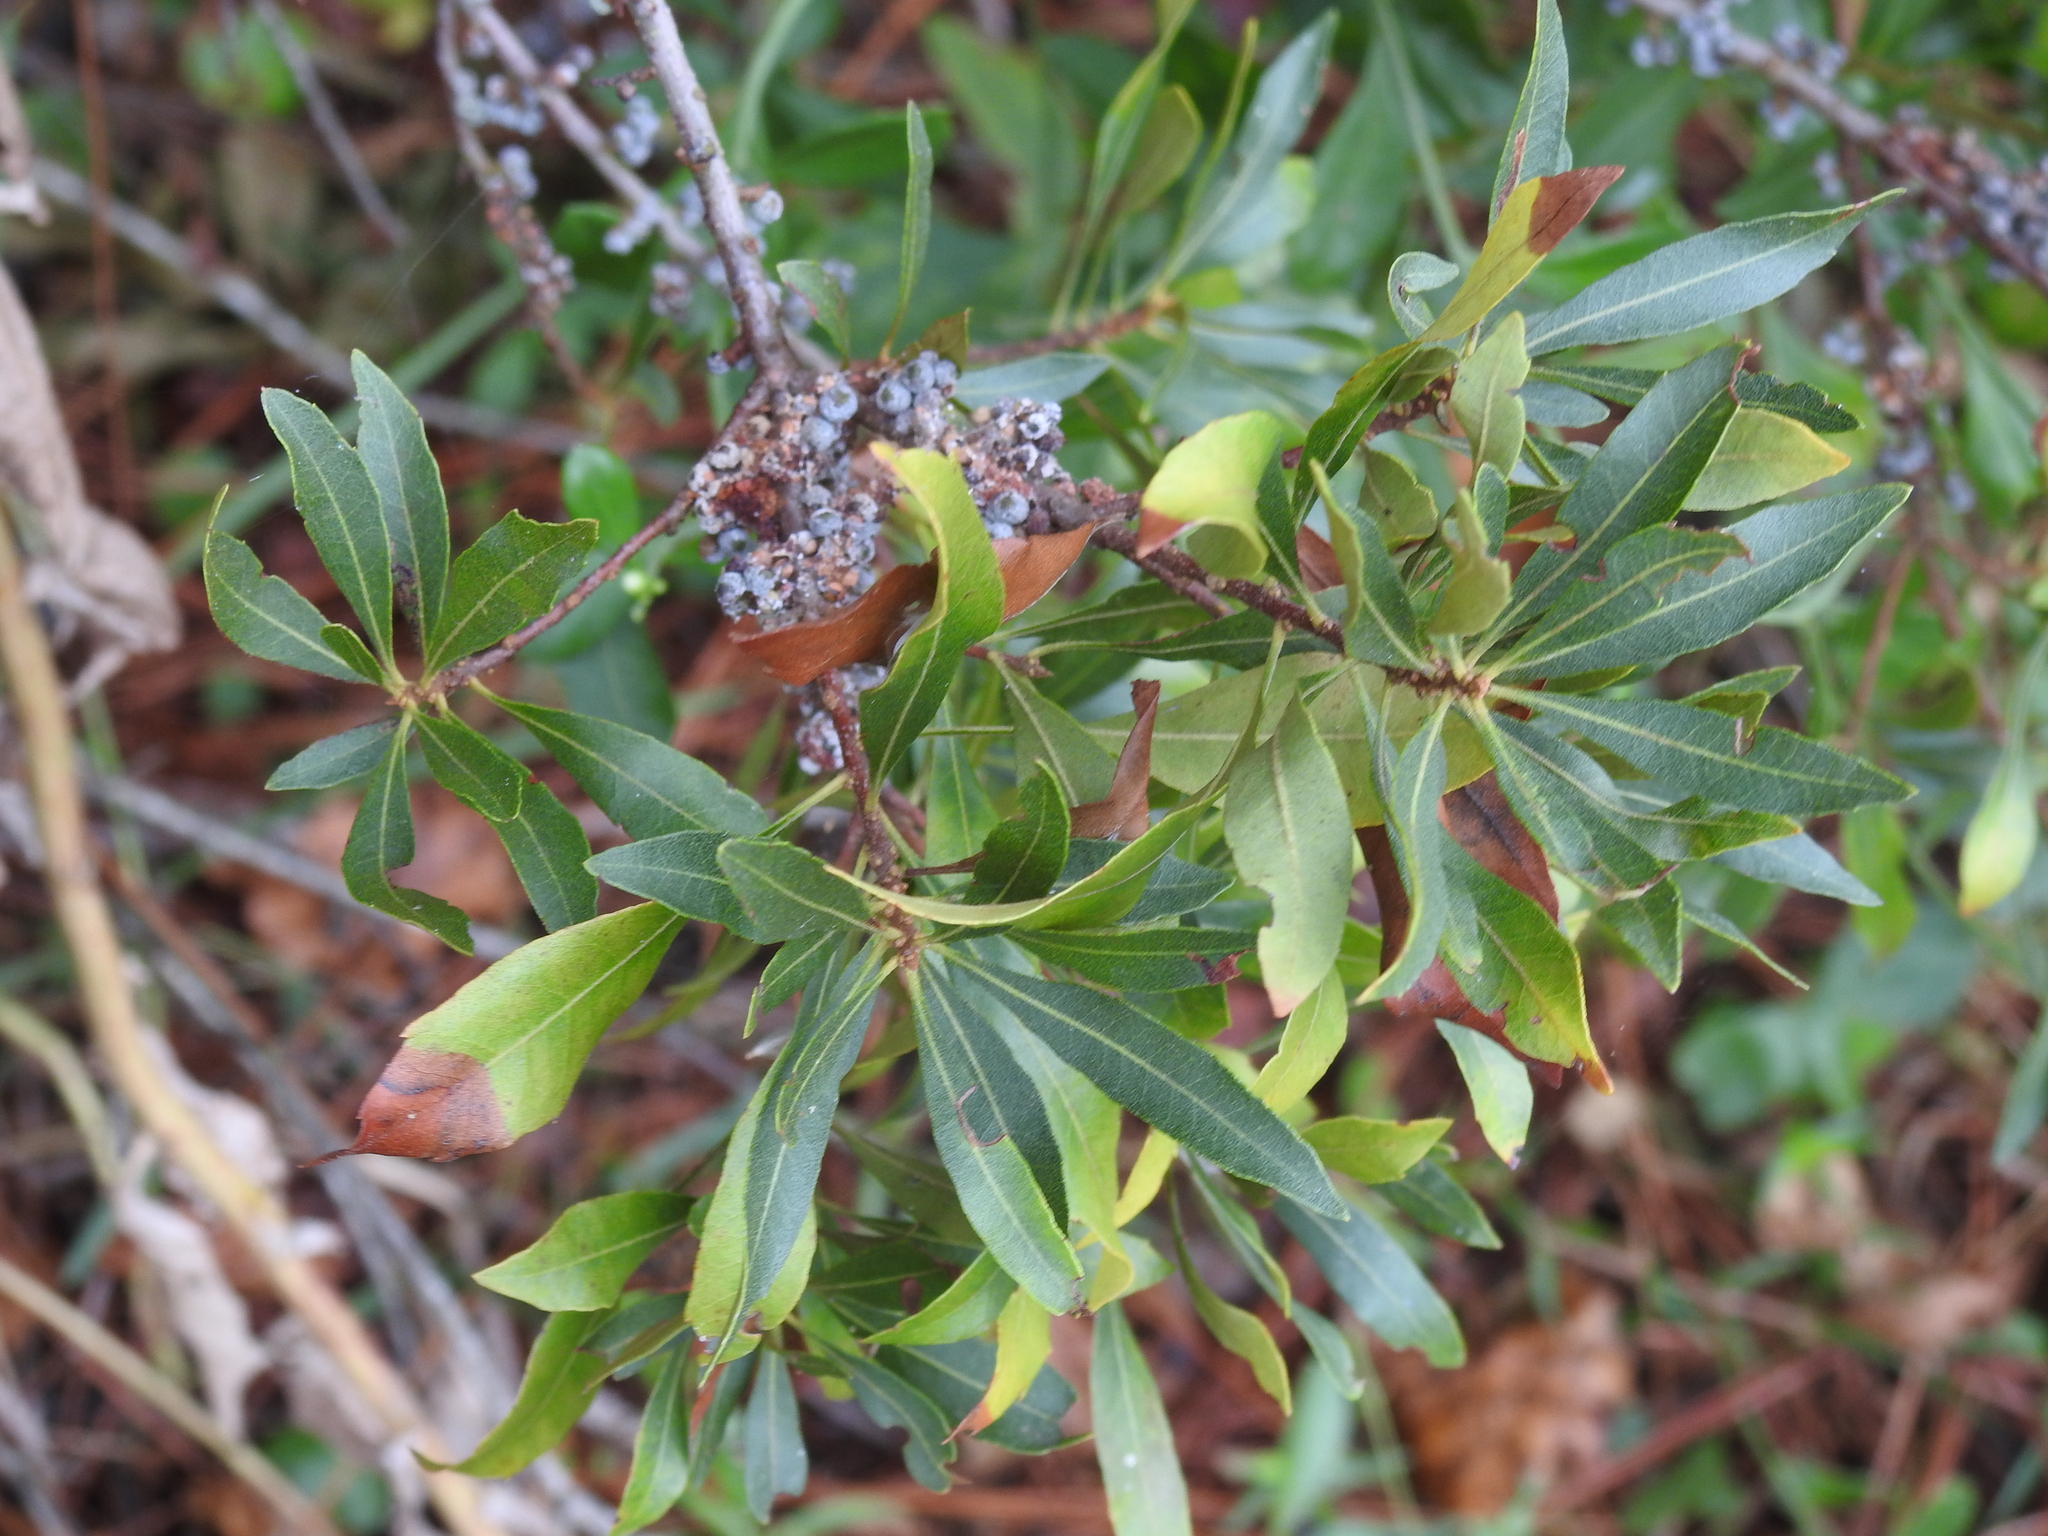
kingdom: Plantae
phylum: Tracheophyta
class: Magnoliopsida
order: Fagales
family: Myricaceae
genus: Morella
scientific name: Morella cerifera
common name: Wax myrtle
